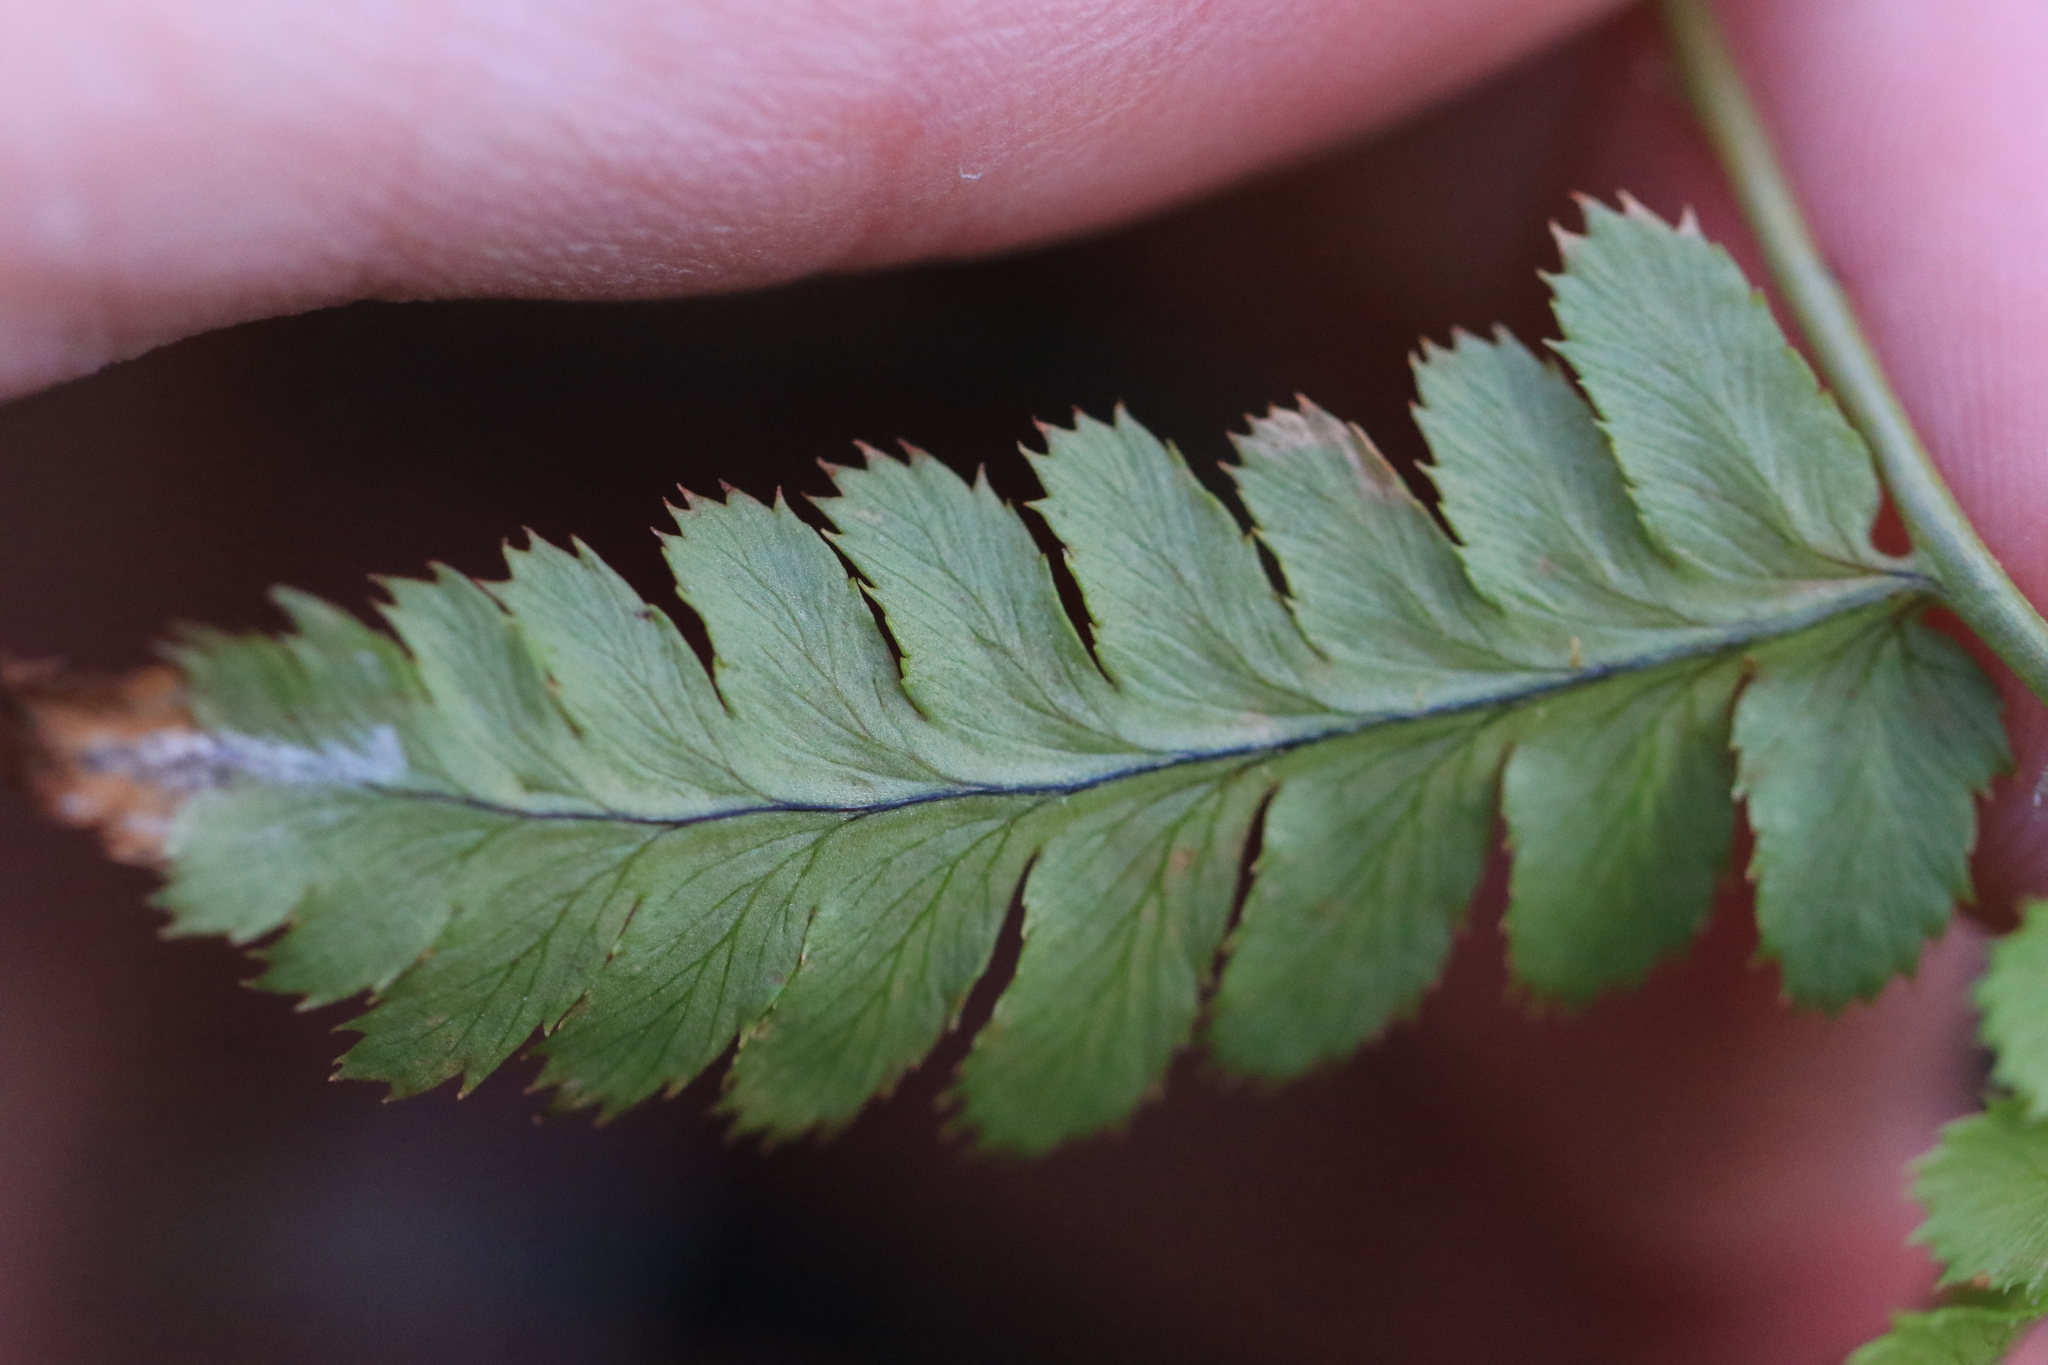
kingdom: Plantae
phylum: Tracheophyta
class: Polypodiopsida
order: Polypodiales
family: Dryopteridaceae
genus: Dryopteris
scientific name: Dryopteris arguta
